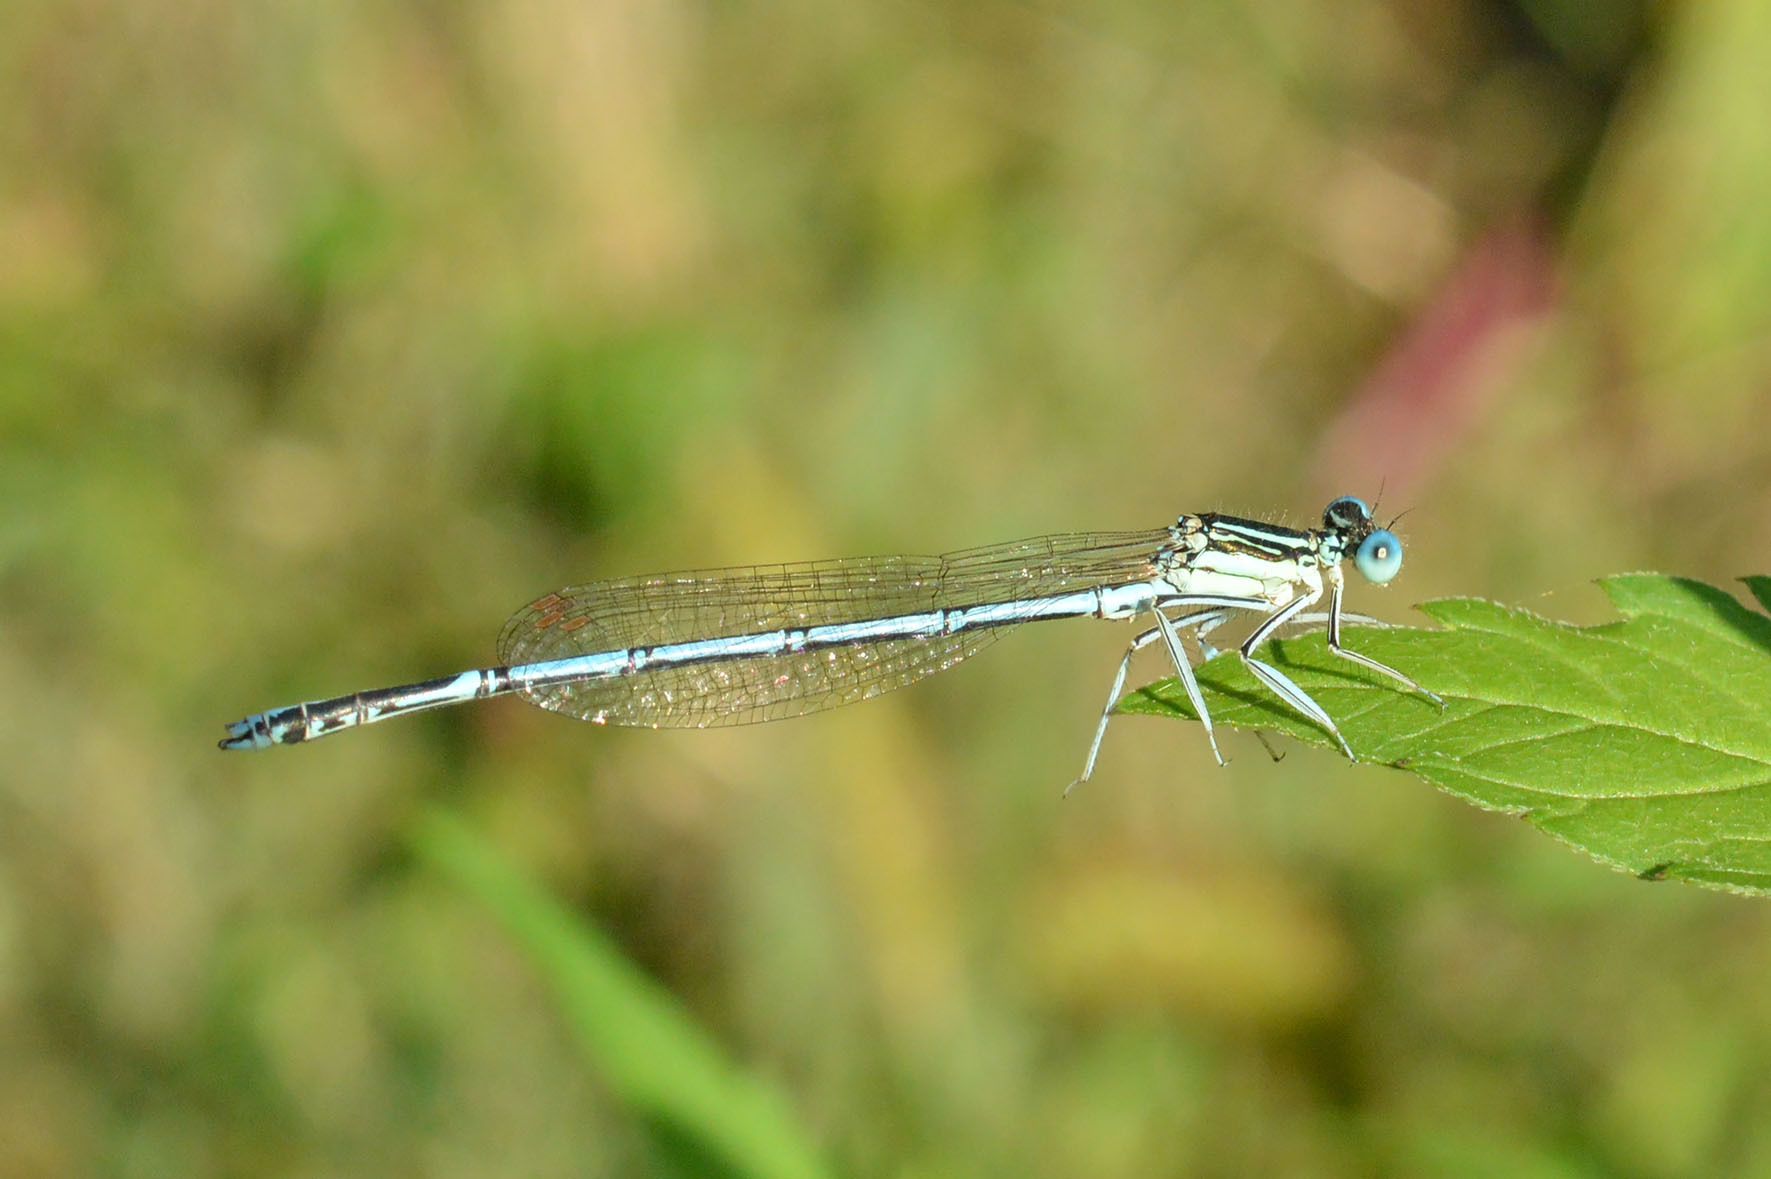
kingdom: Animalia
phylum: Arthropoda
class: Insecta
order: Odonata
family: Platycnemididae
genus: Platycnemis
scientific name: Platycnemis pennipes
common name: White-legged damselfly
